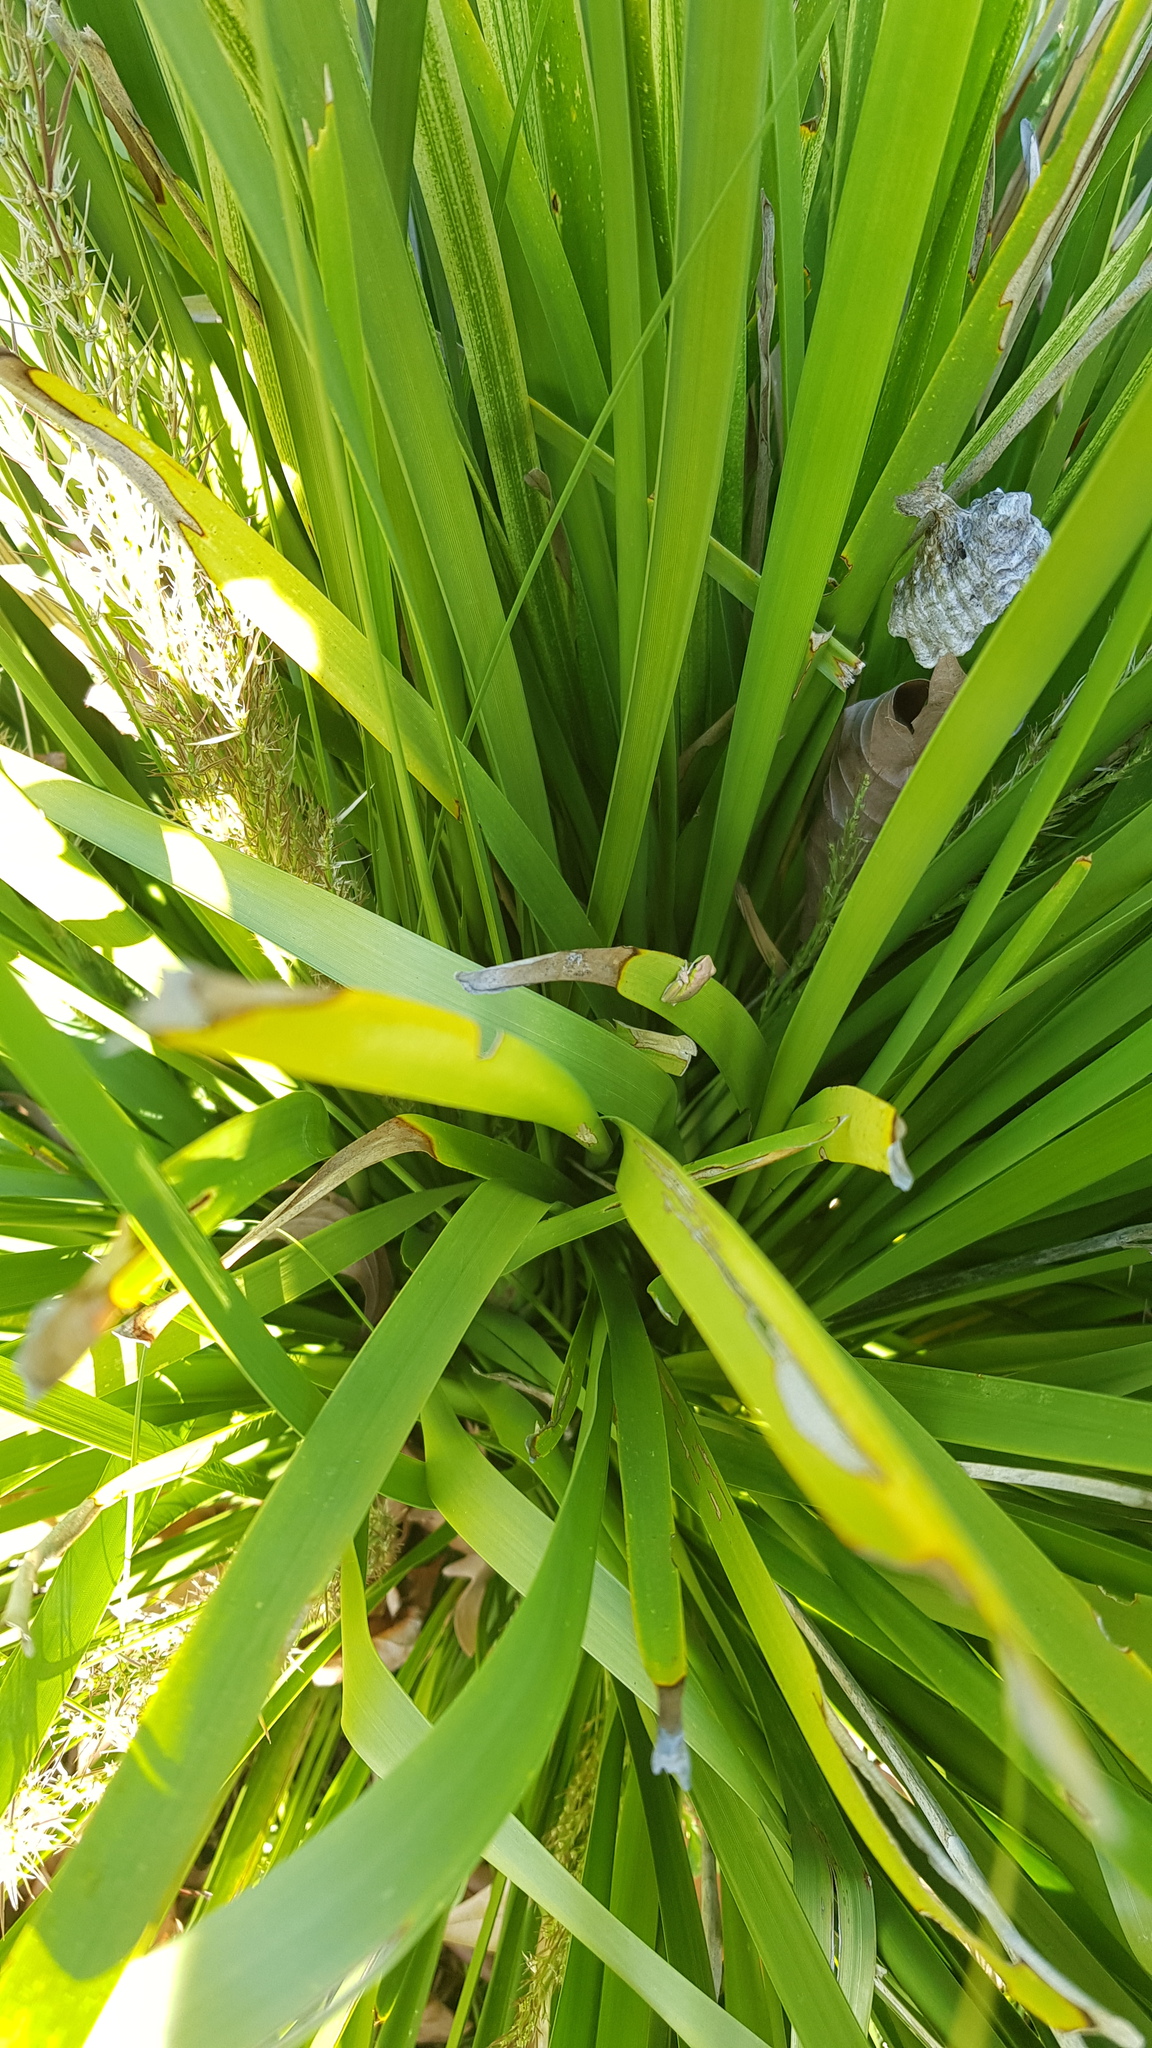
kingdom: Animalia
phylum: Chordata
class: Amphibia
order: Anura
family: Pelodryadidae
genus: Litoria
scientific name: Litoria fallax
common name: Eastern dwarf treefrog
